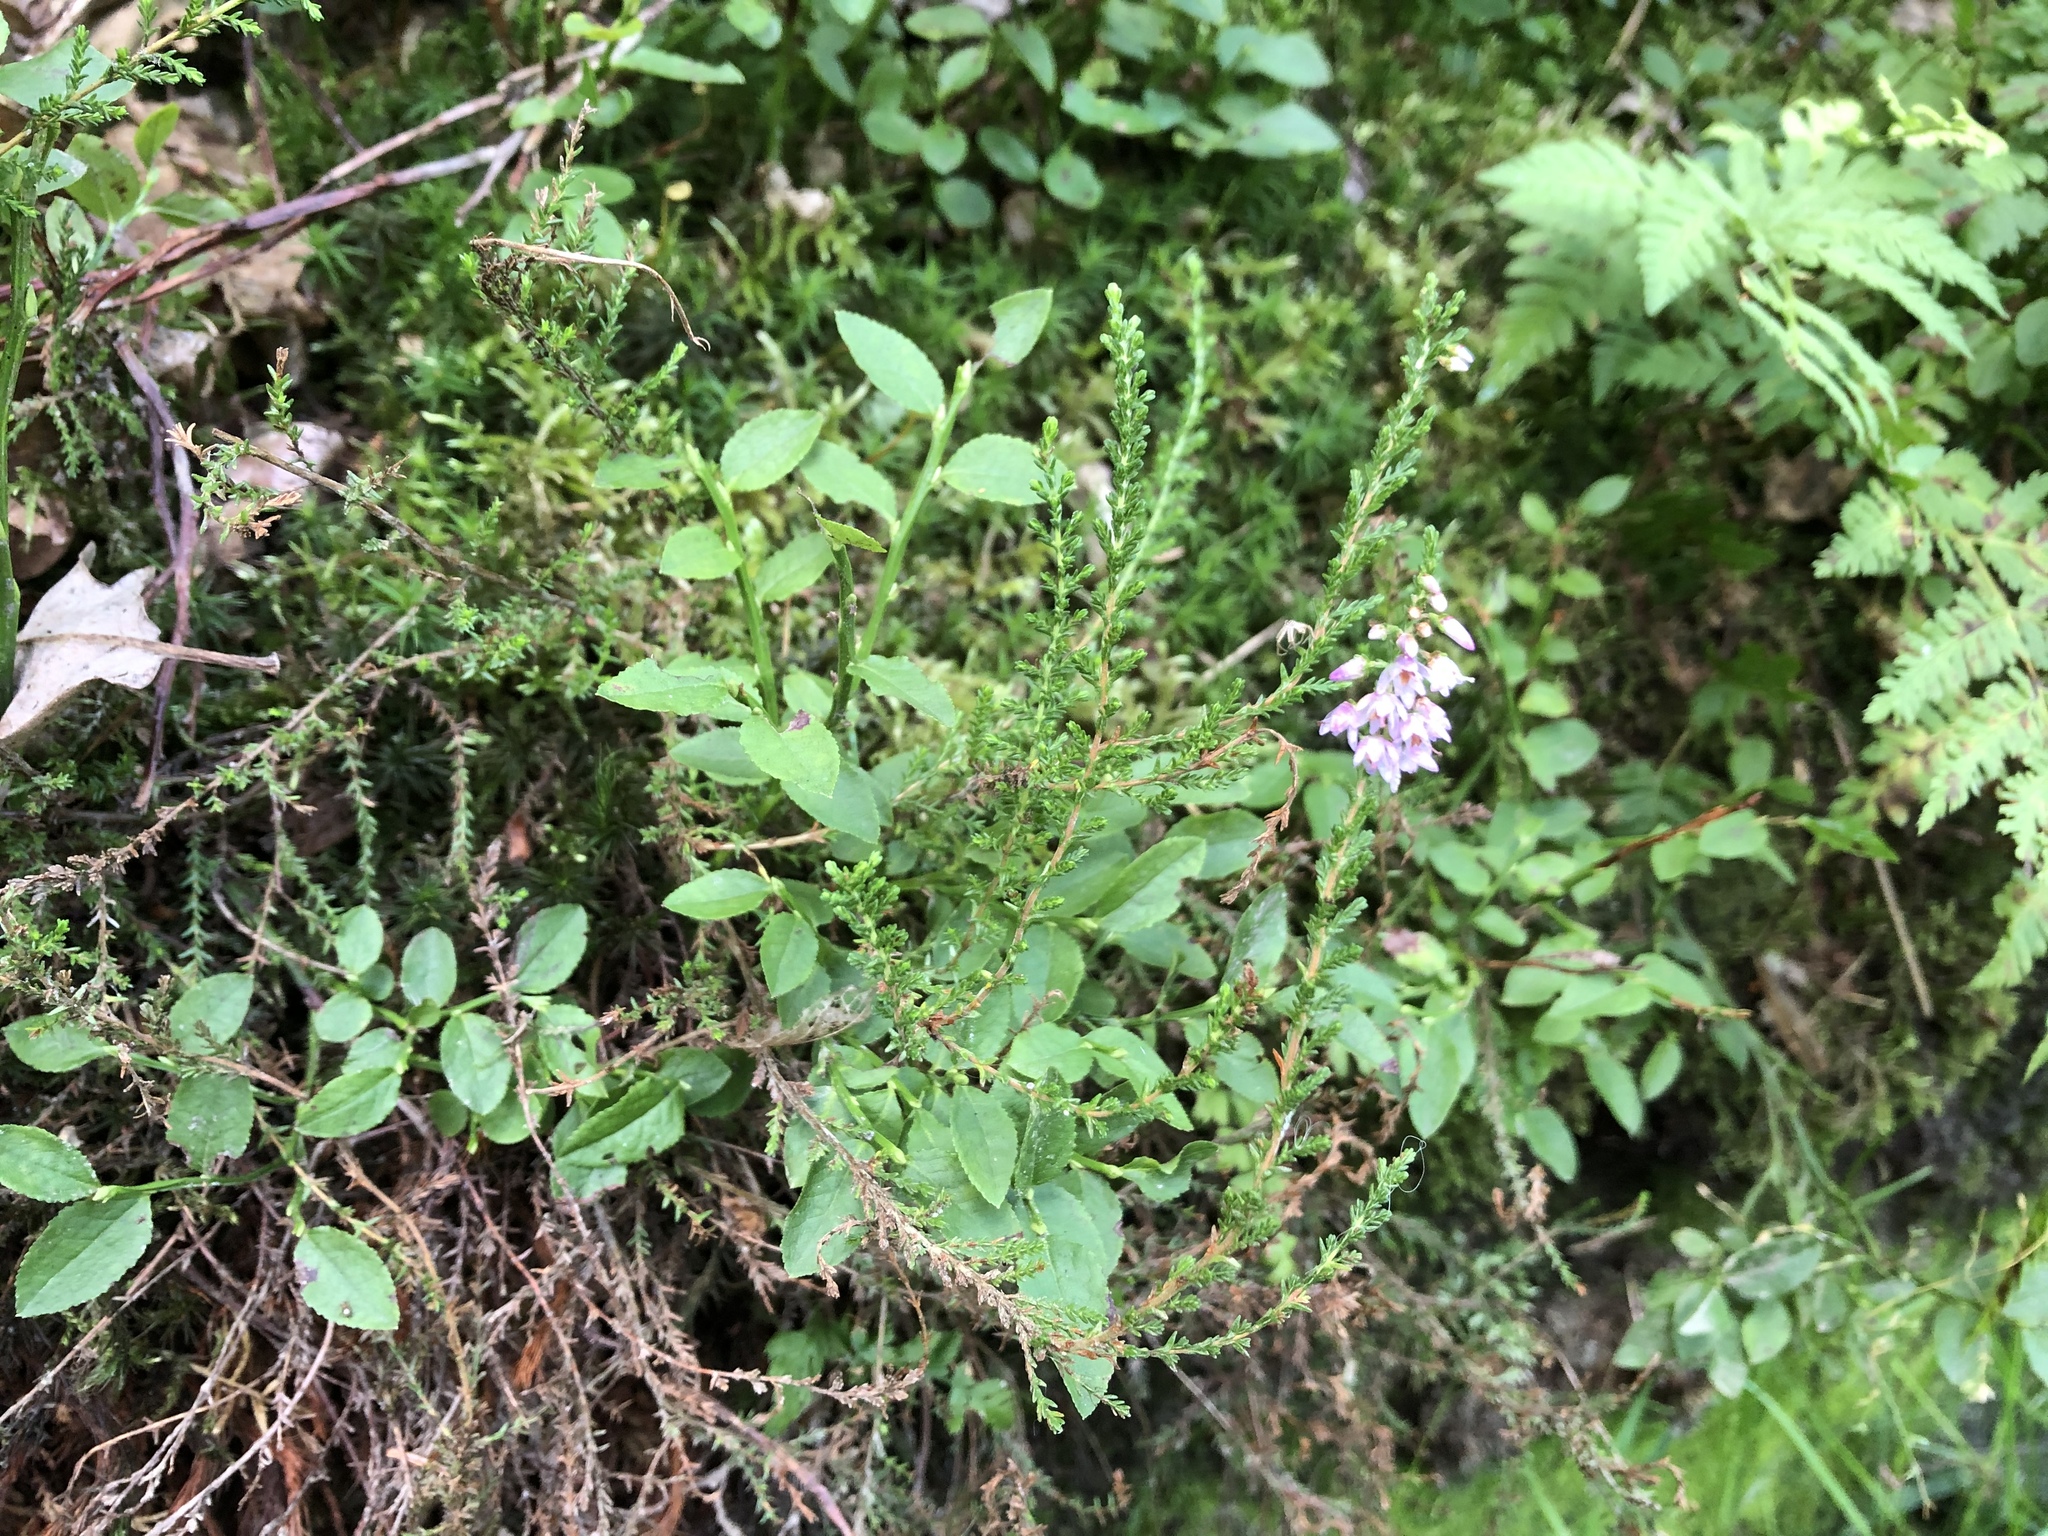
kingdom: Plantae
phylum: Tracheophyta
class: Magnoliopsida
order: Ericales
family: Ericaceae
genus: Calluna
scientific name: Calluna vulgaris
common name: Heather
